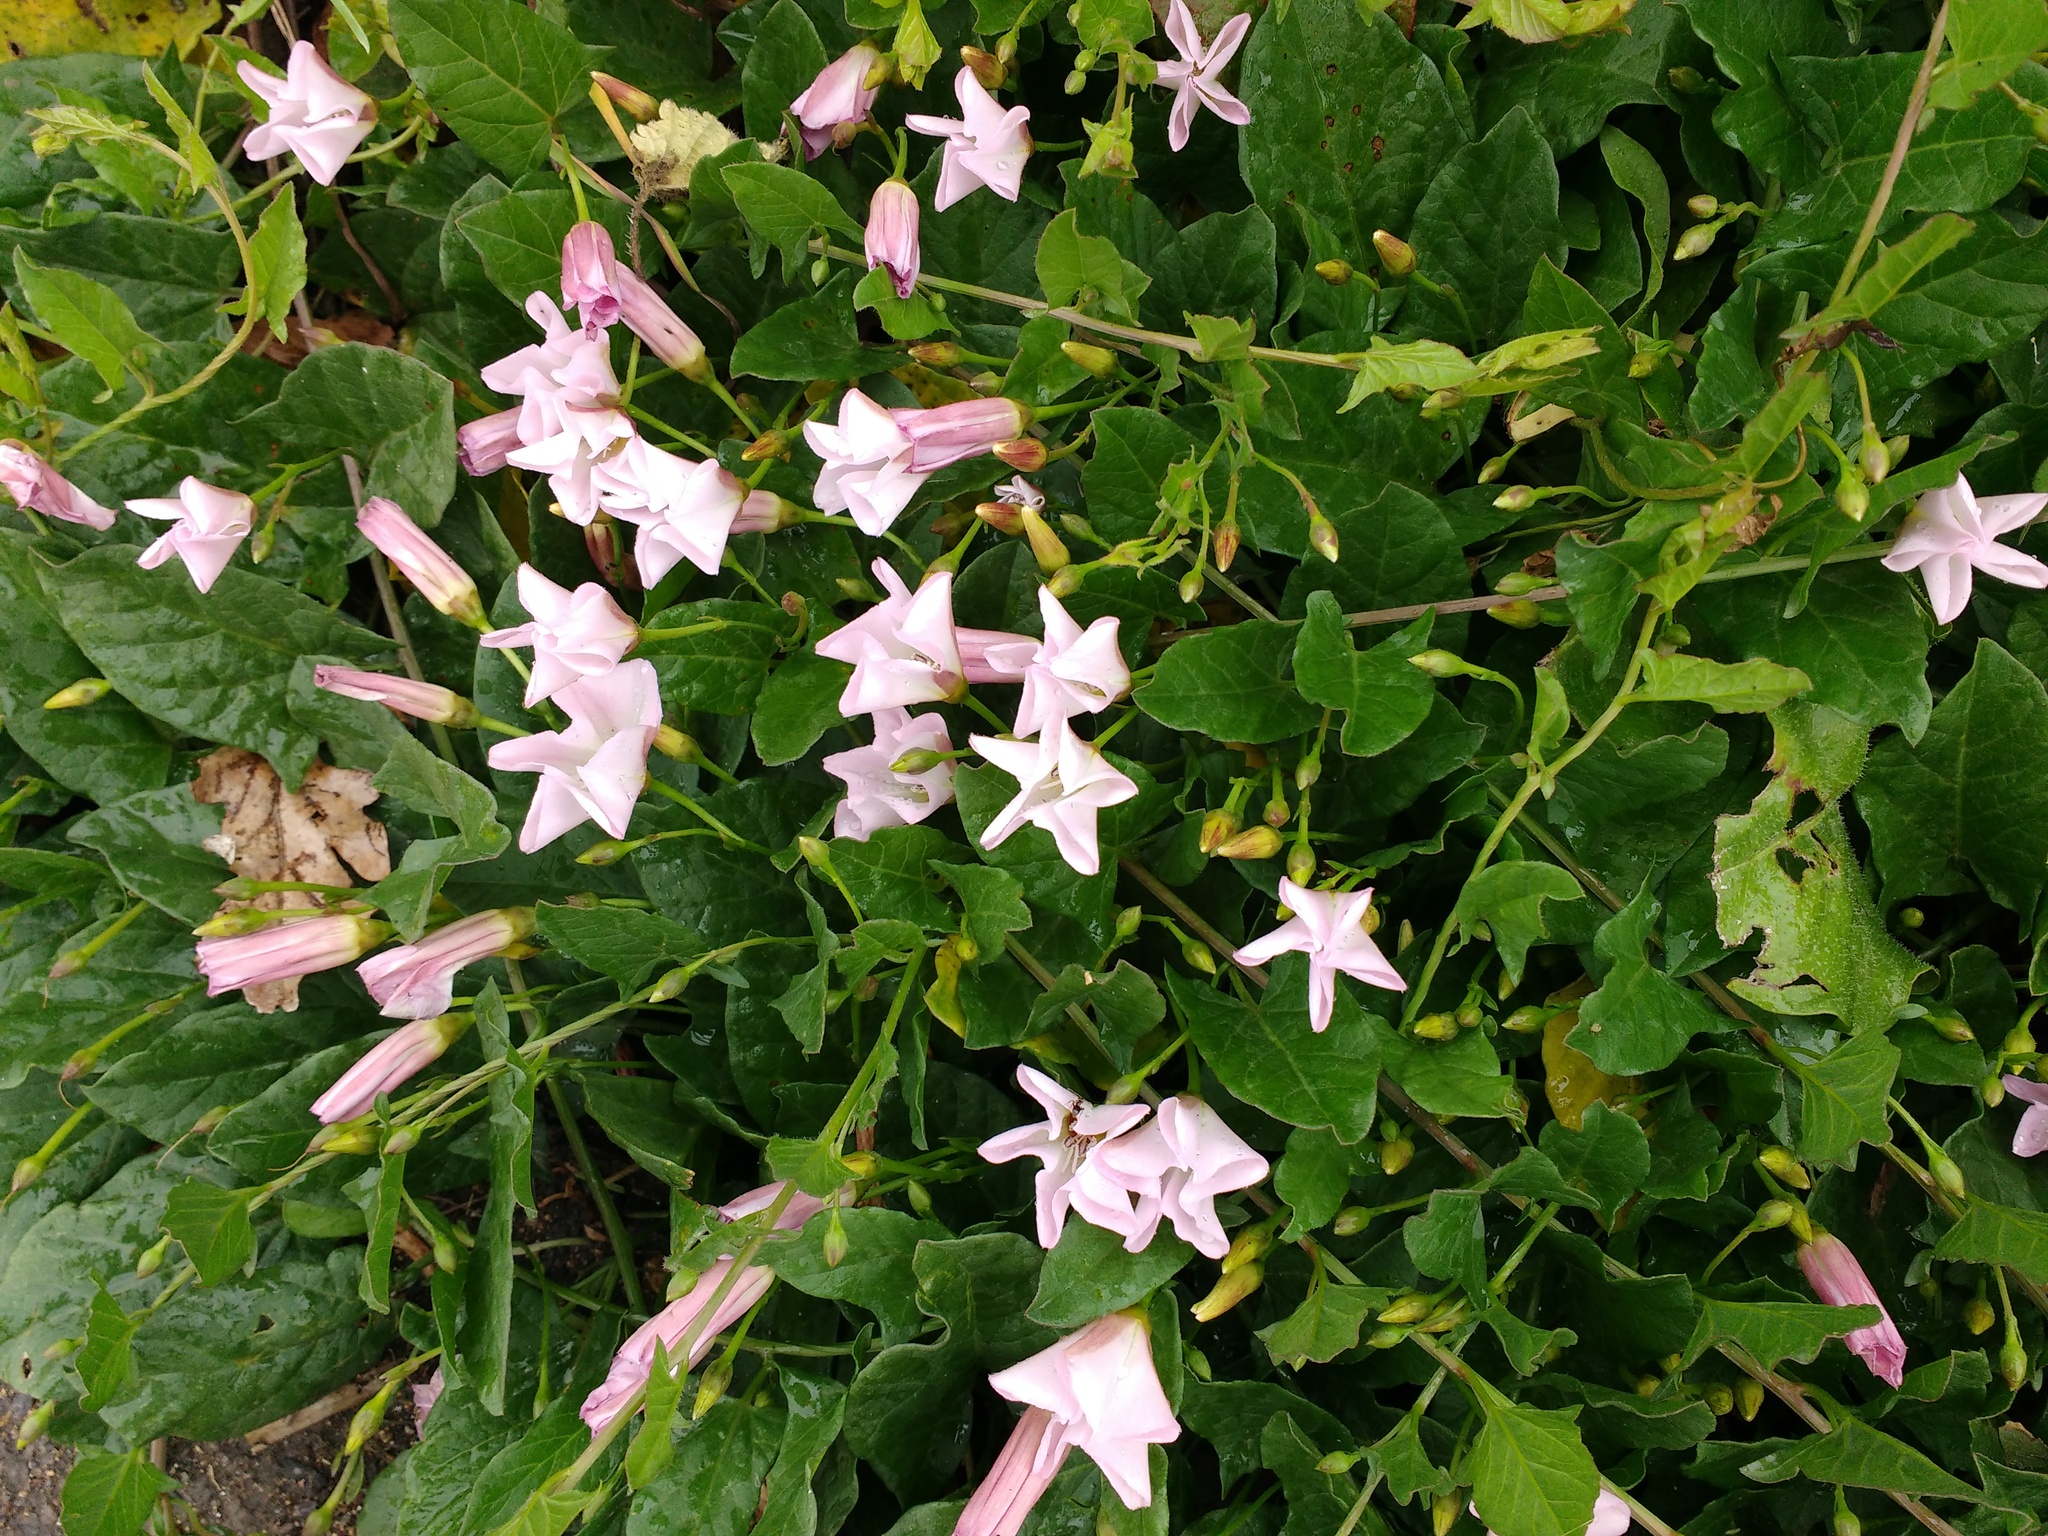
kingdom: Plantae
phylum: Tracheophyta
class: Magnoliopsida
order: Solanales
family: Convolvulaceae
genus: Convolvulus
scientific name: Convolvulus arvensis
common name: Field bindweed
